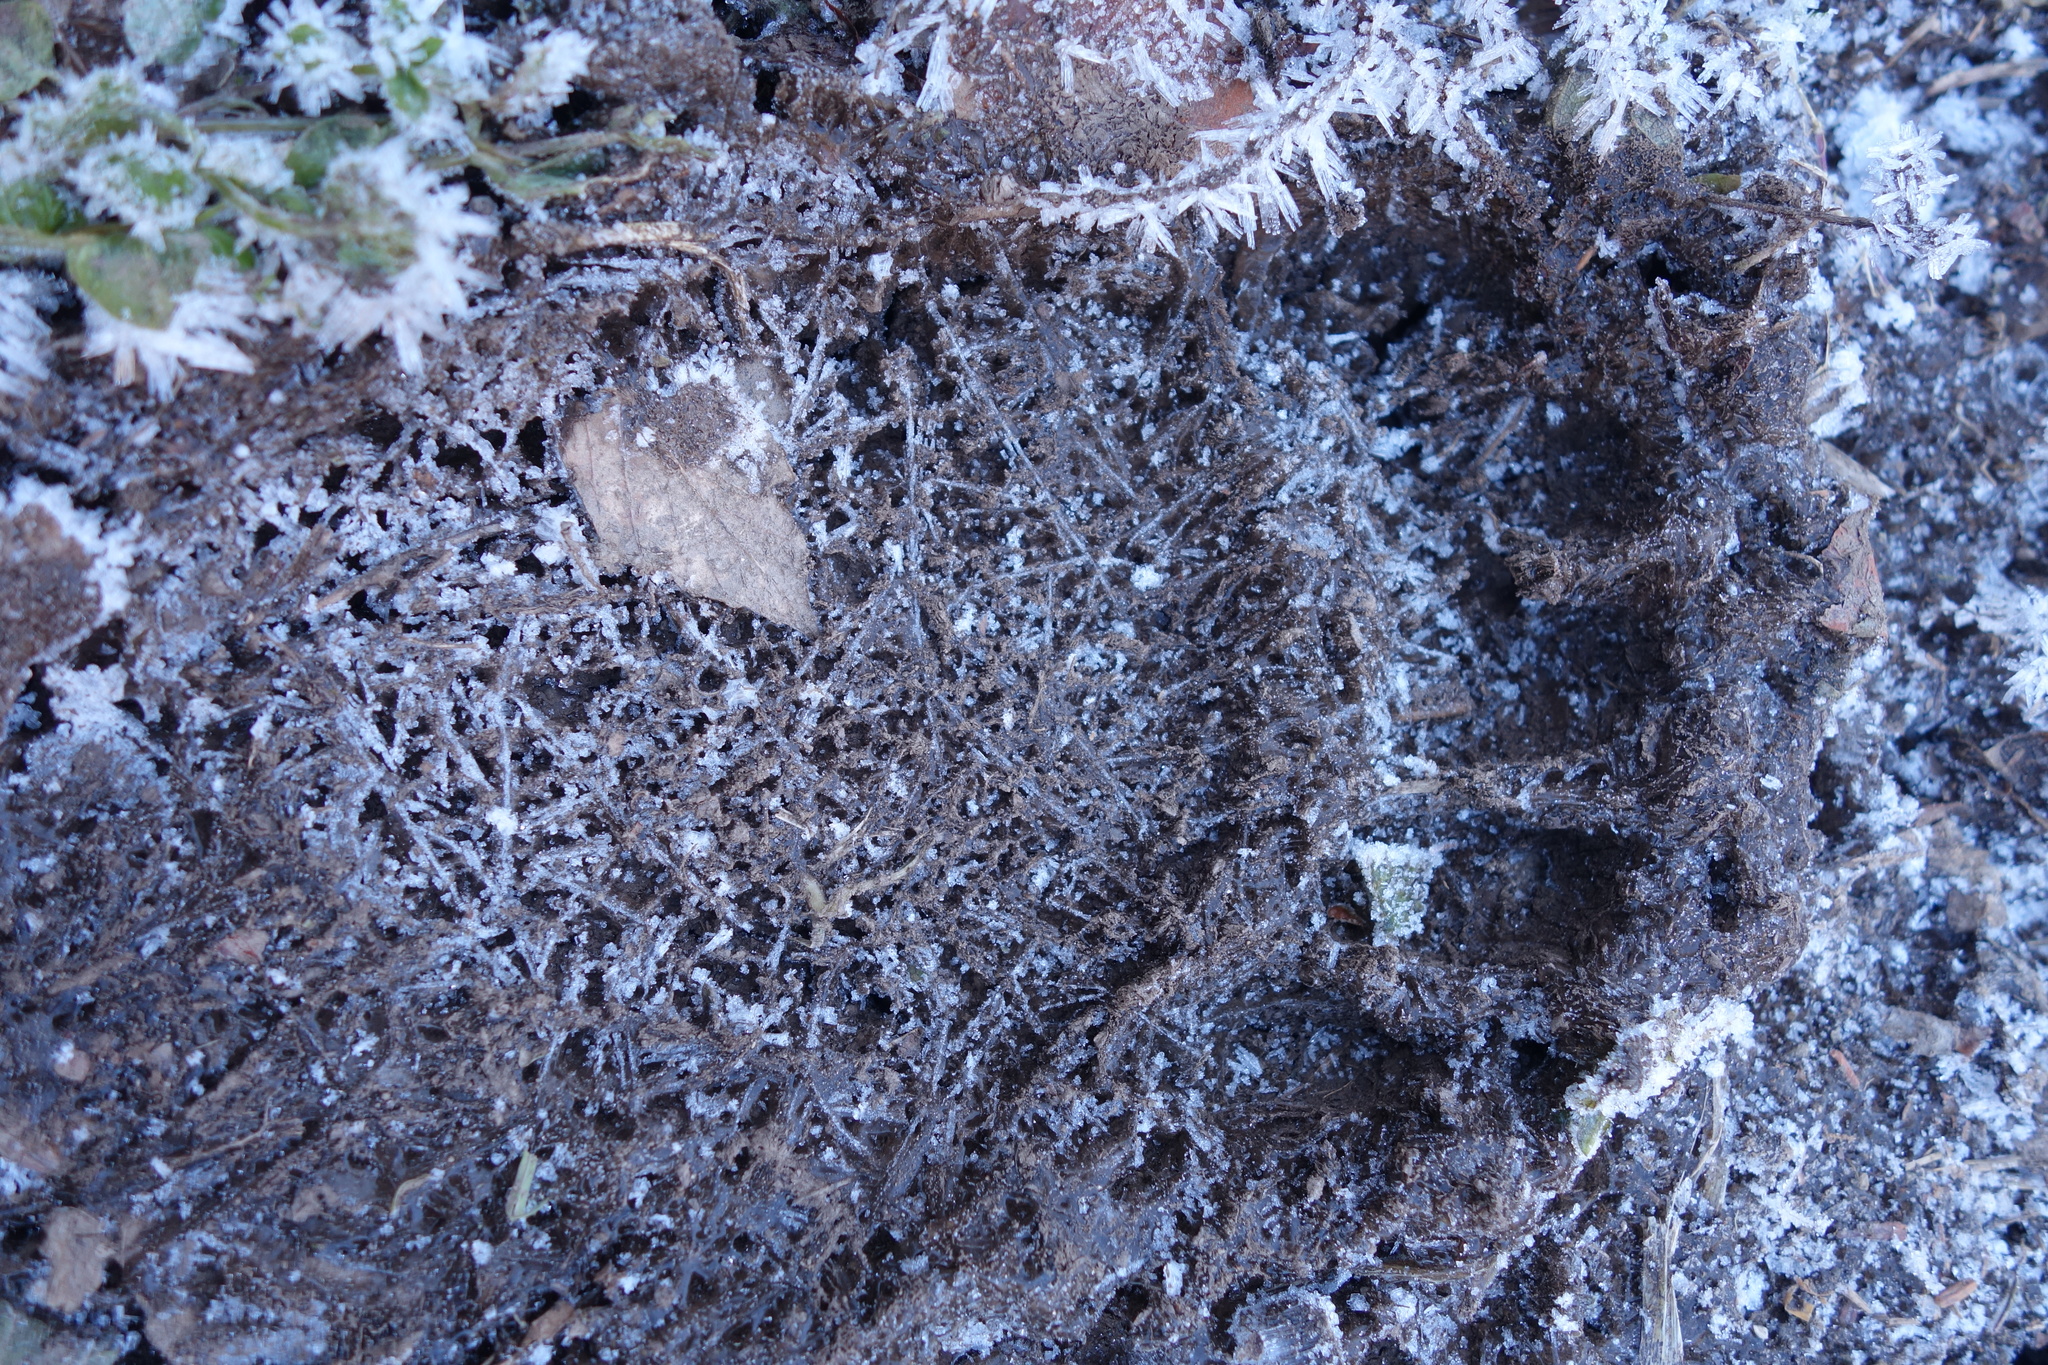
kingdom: Animalia
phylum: Chordata
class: Mammalia
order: Carnivora
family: Ursidae
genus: Ursus
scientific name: Ursus arctos
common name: Brown bear
